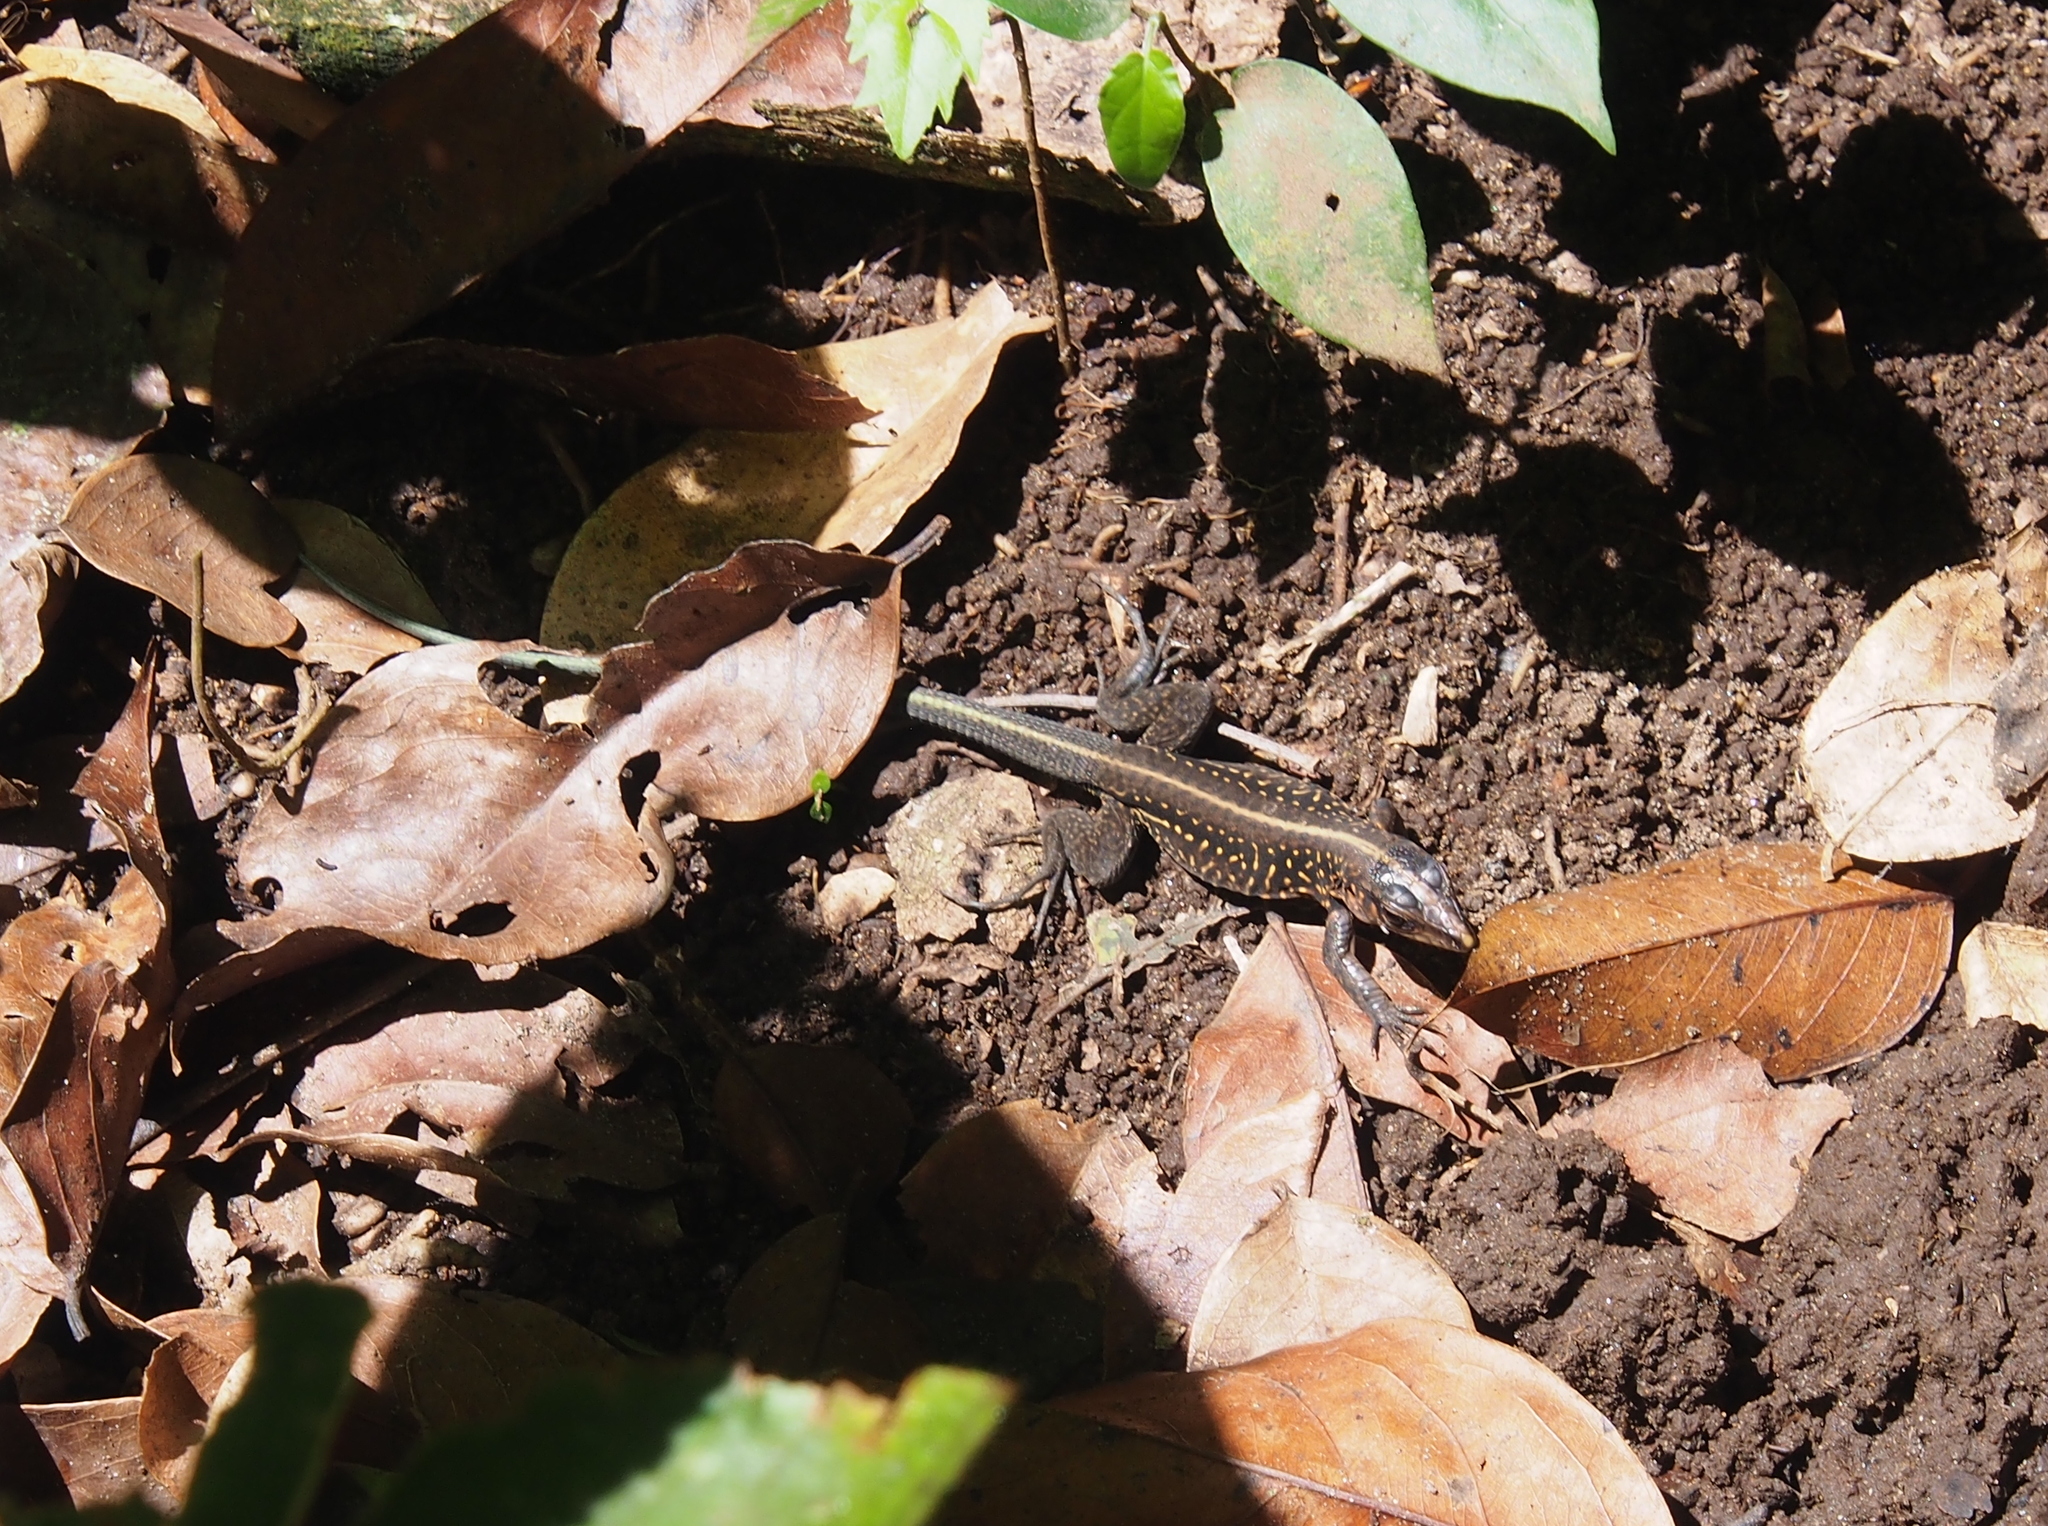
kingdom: Animalia
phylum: Chordata
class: Squamata
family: Teiidae
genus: Holcosus
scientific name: Holcosus festivus
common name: Middle american ameiva
